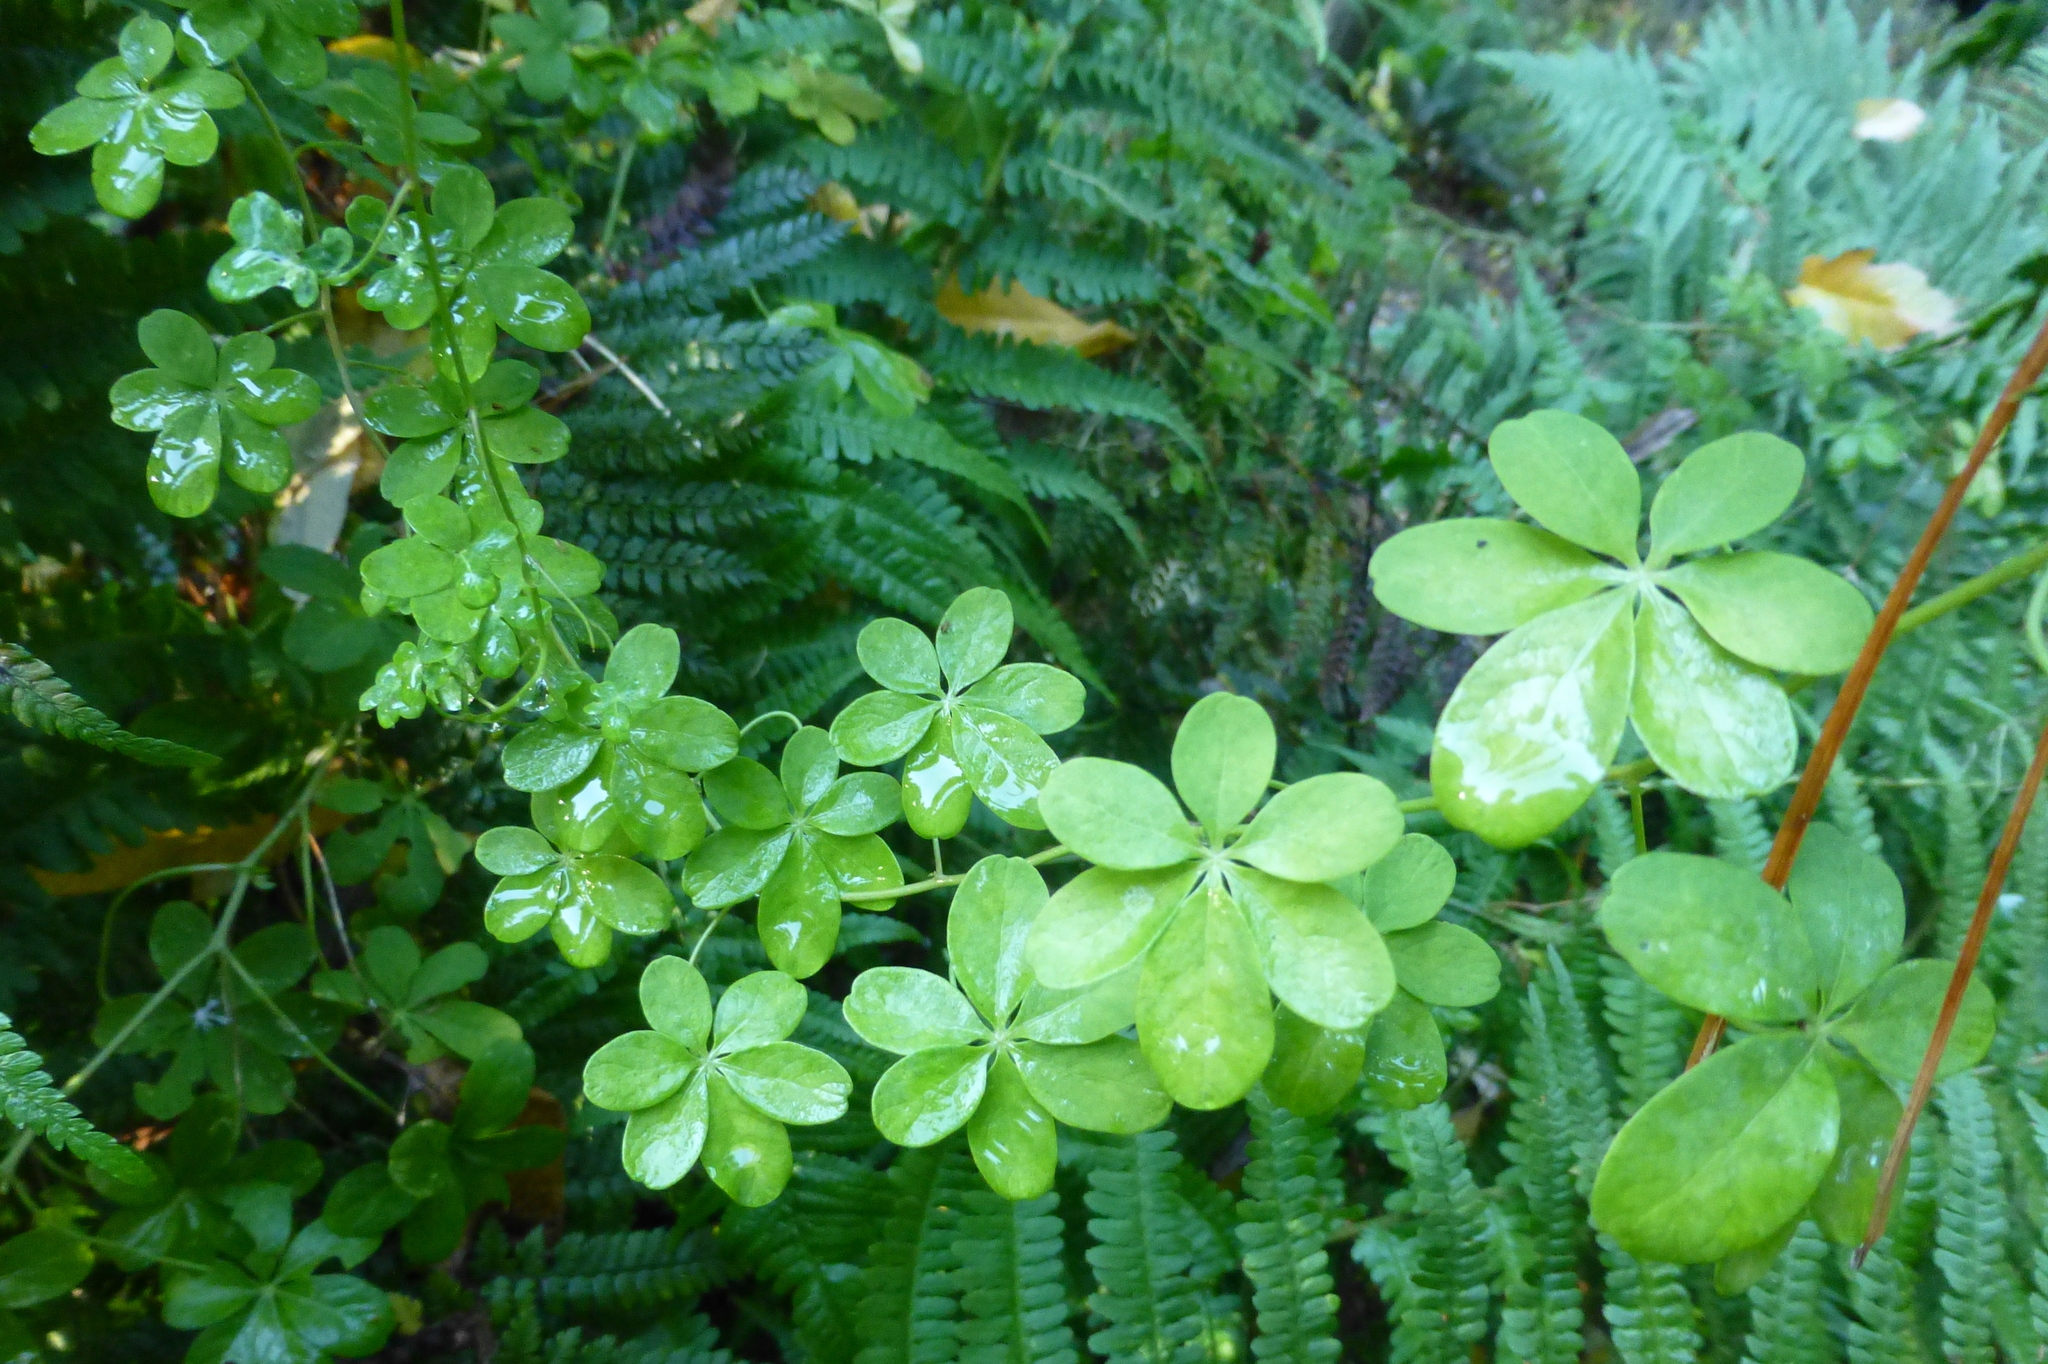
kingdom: Plantae
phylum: Tracheophyta
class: Magnoliopsida
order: Brassicales
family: Tropaeolaceae
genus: Tropaeolum
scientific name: Tropaeolum speciosum
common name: Flame nasturtium
